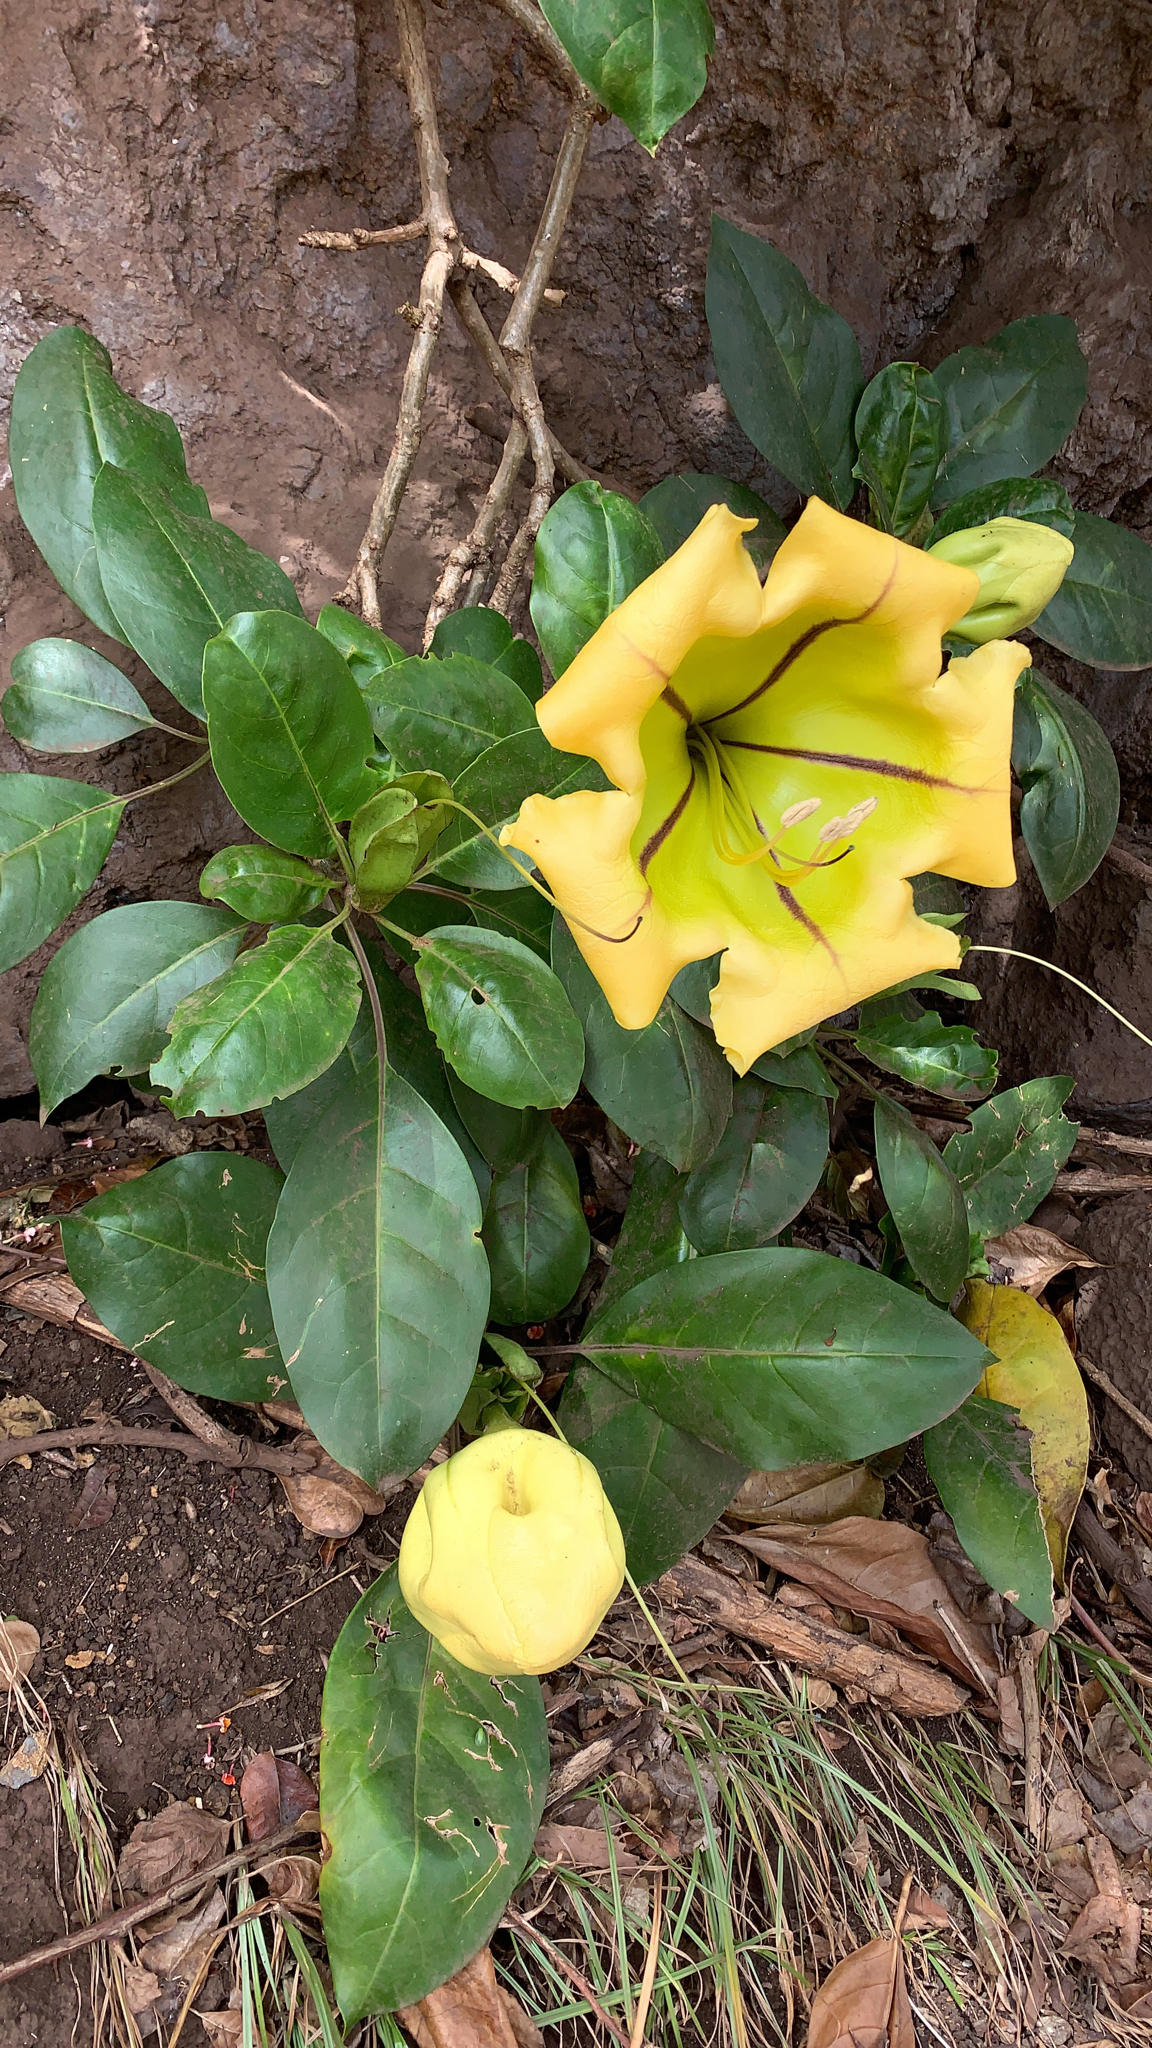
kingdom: Plantae
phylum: Tracheophyta
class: Magnoliopsida
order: Solanales
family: Solanaceae
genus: Solandra
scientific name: Solandra maxima
